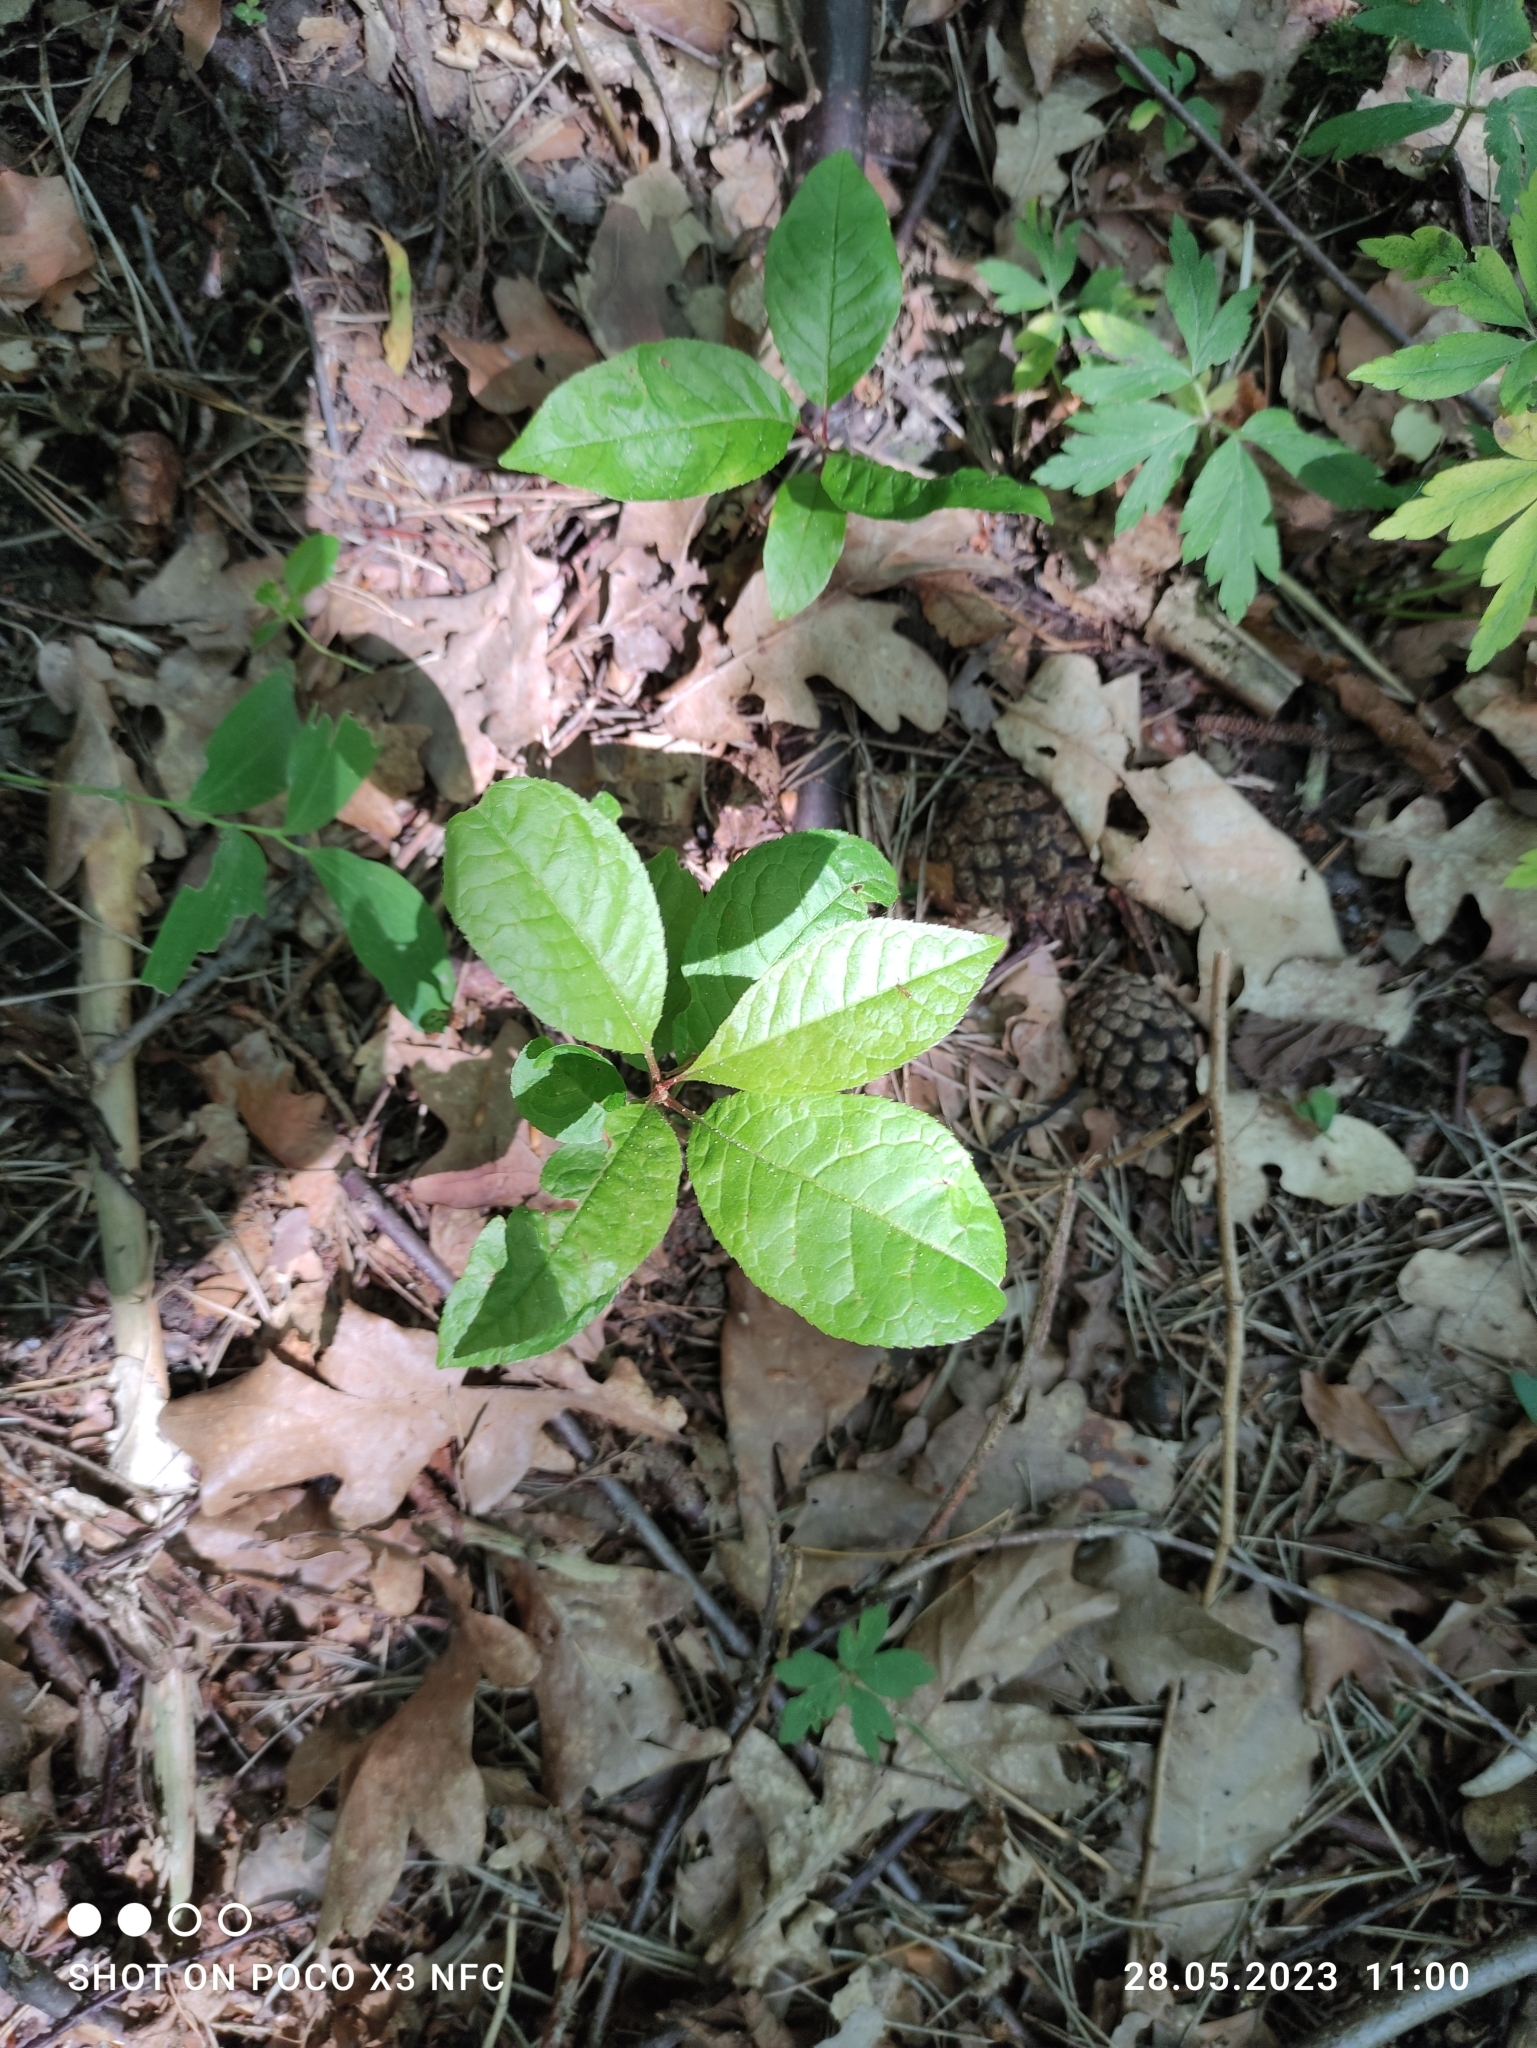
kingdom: Plantae
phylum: Tracheophyta
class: Magnoliopsida
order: Rosales
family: Rosaceae
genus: Prunus
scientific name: Prunus serotina
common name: Black cherry
